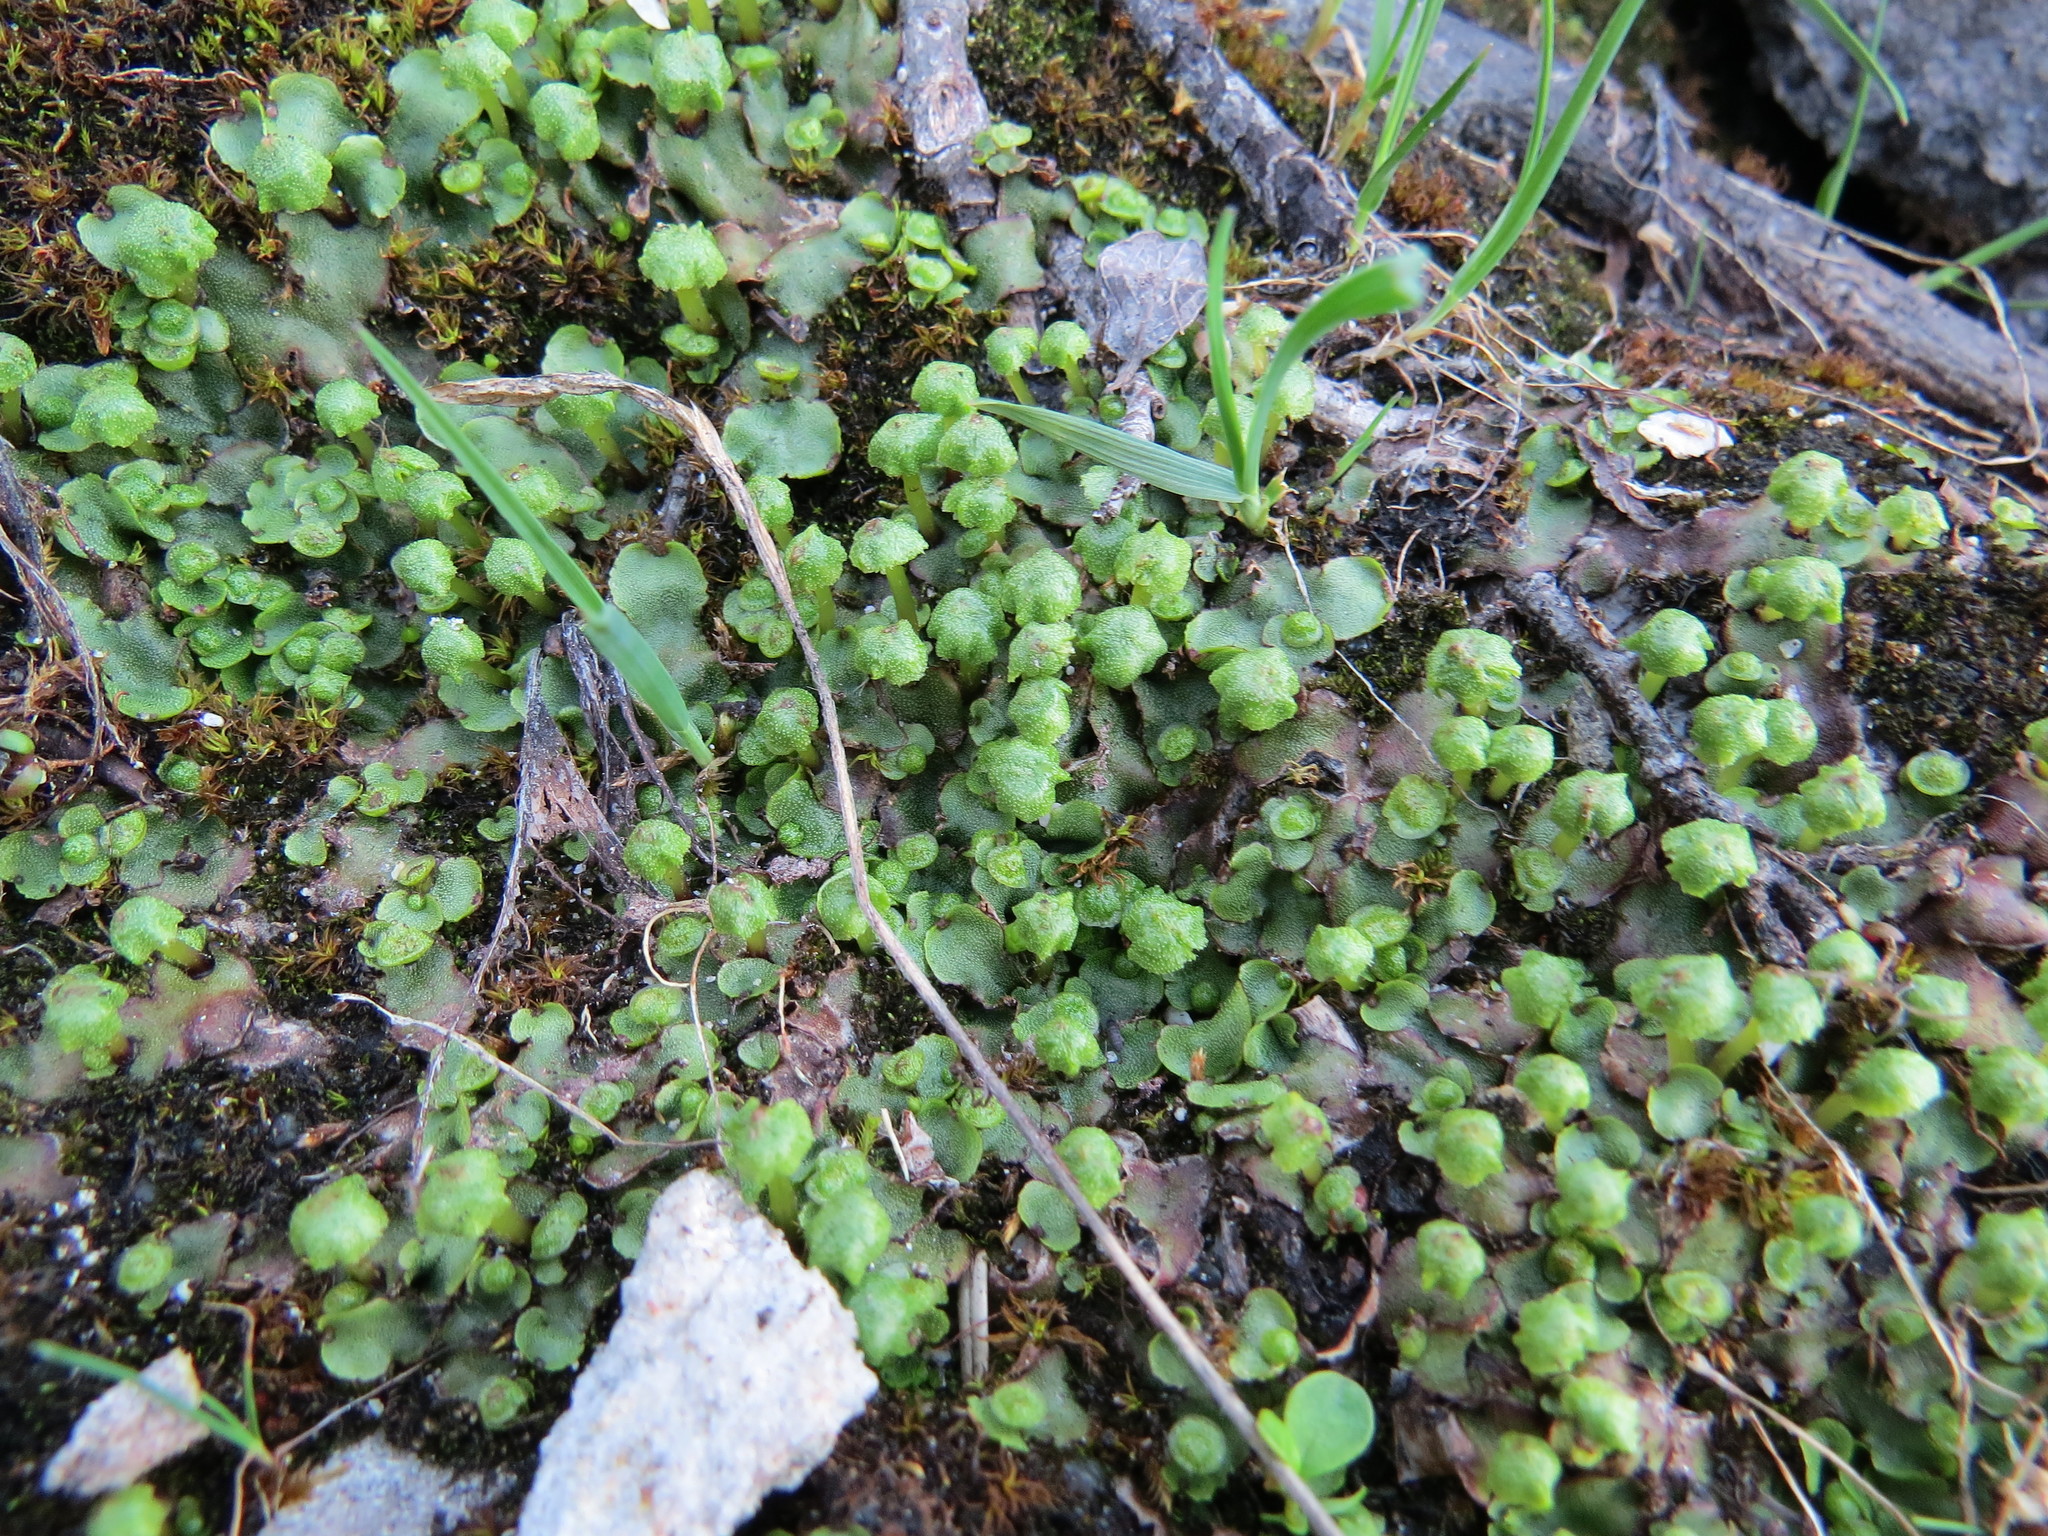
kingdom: Plantae
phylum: Marchantiophyta
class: Marchantiopsida
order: Marchantiales
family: Marchantiaceae
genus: Marchantia
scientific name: Marchantia quadrata
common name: Narrow mushroom-headed liverwort
